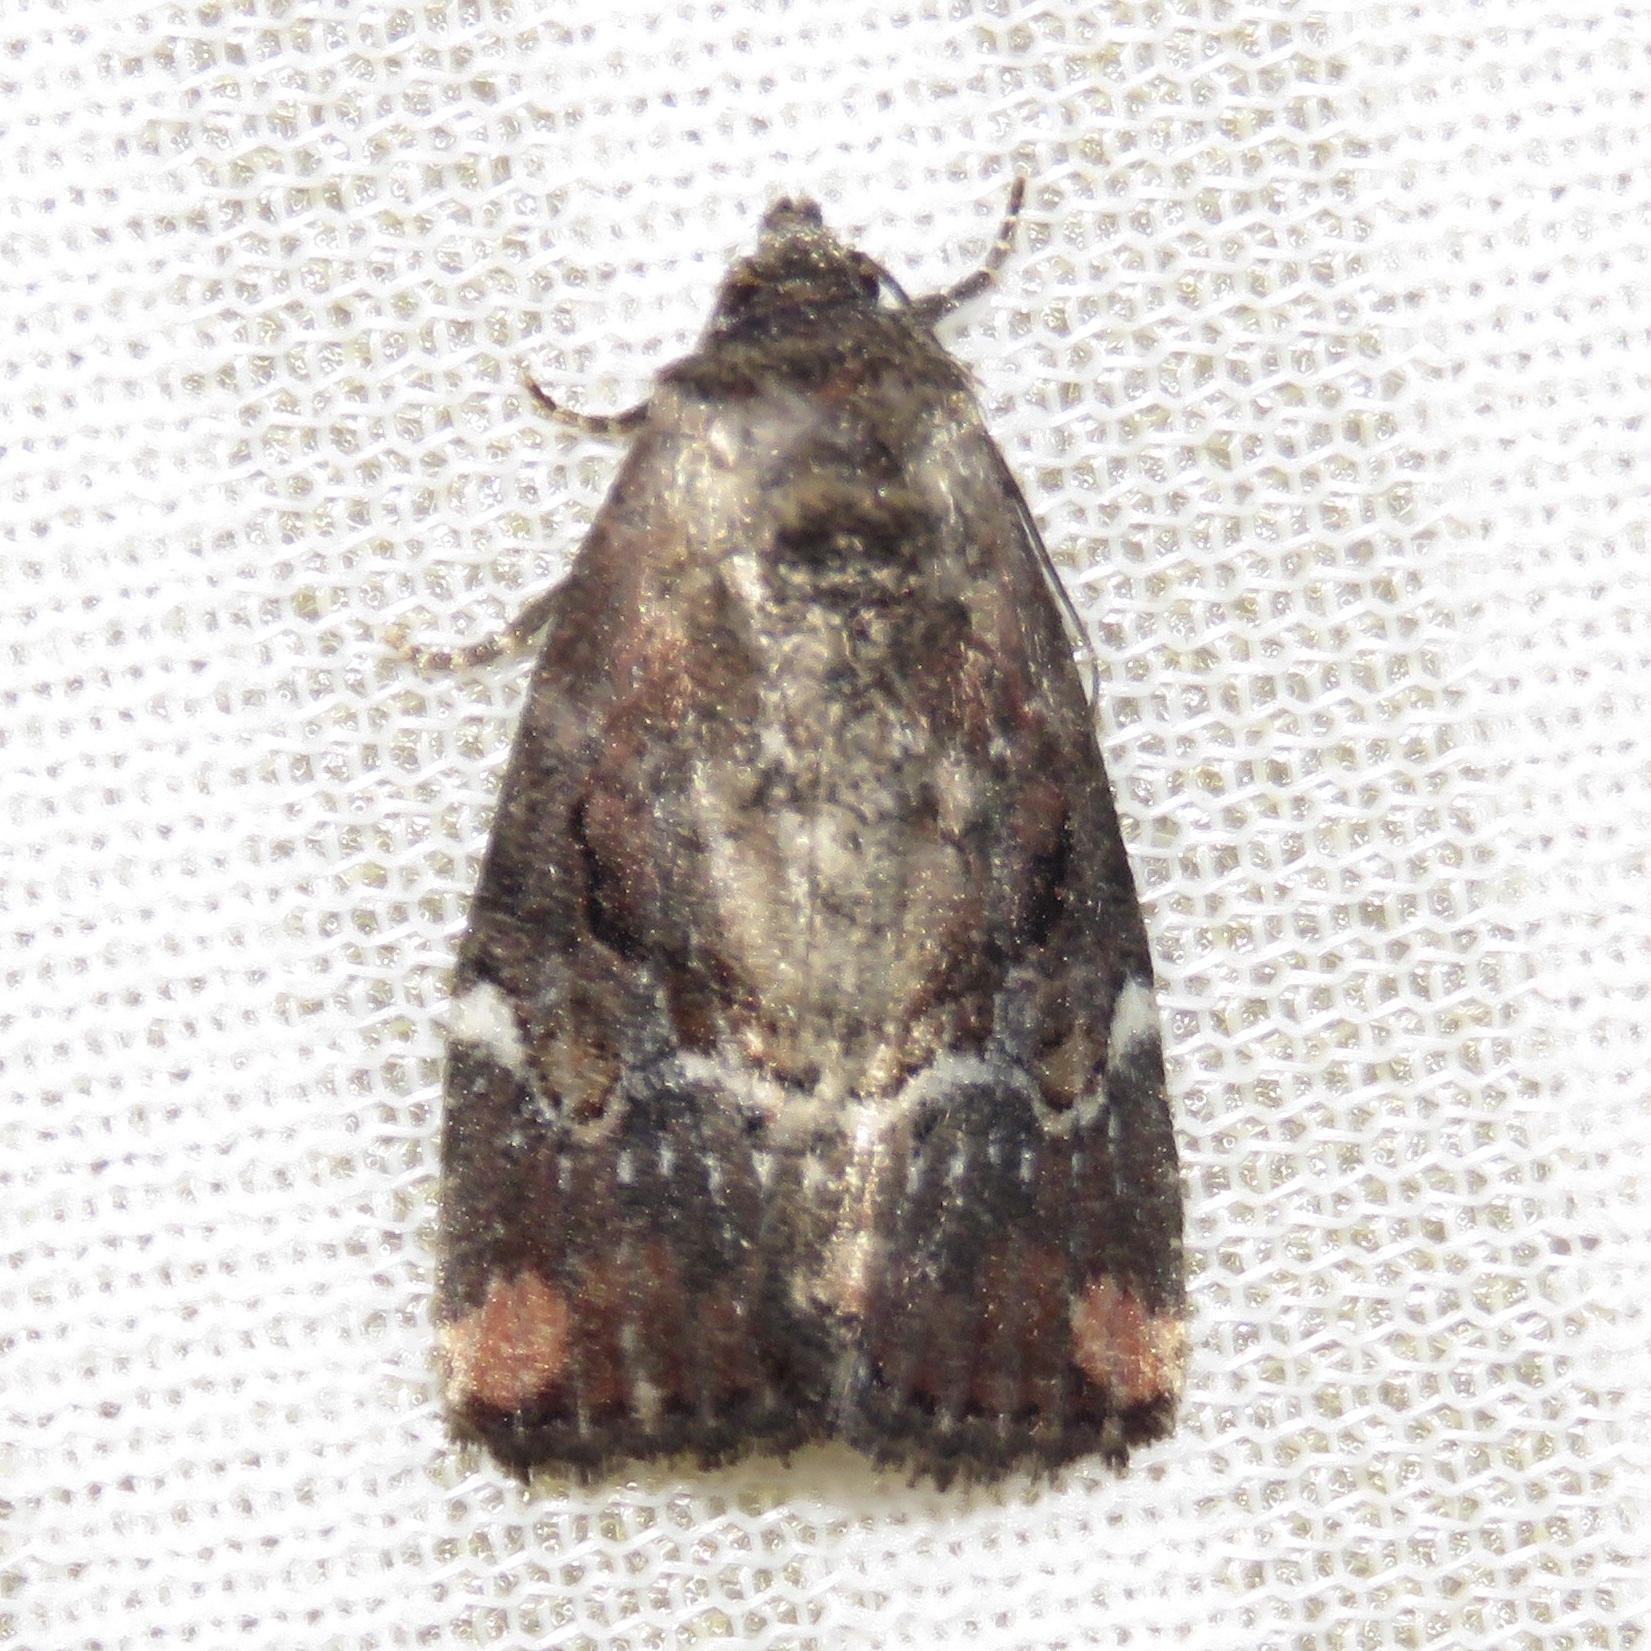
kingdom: Animalia
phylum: Arthropoda
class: Insecta
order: Lepidoptera
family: Noctuidae
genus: Elaphria
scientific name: Elaphria versicolor
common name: Fir harlequin
